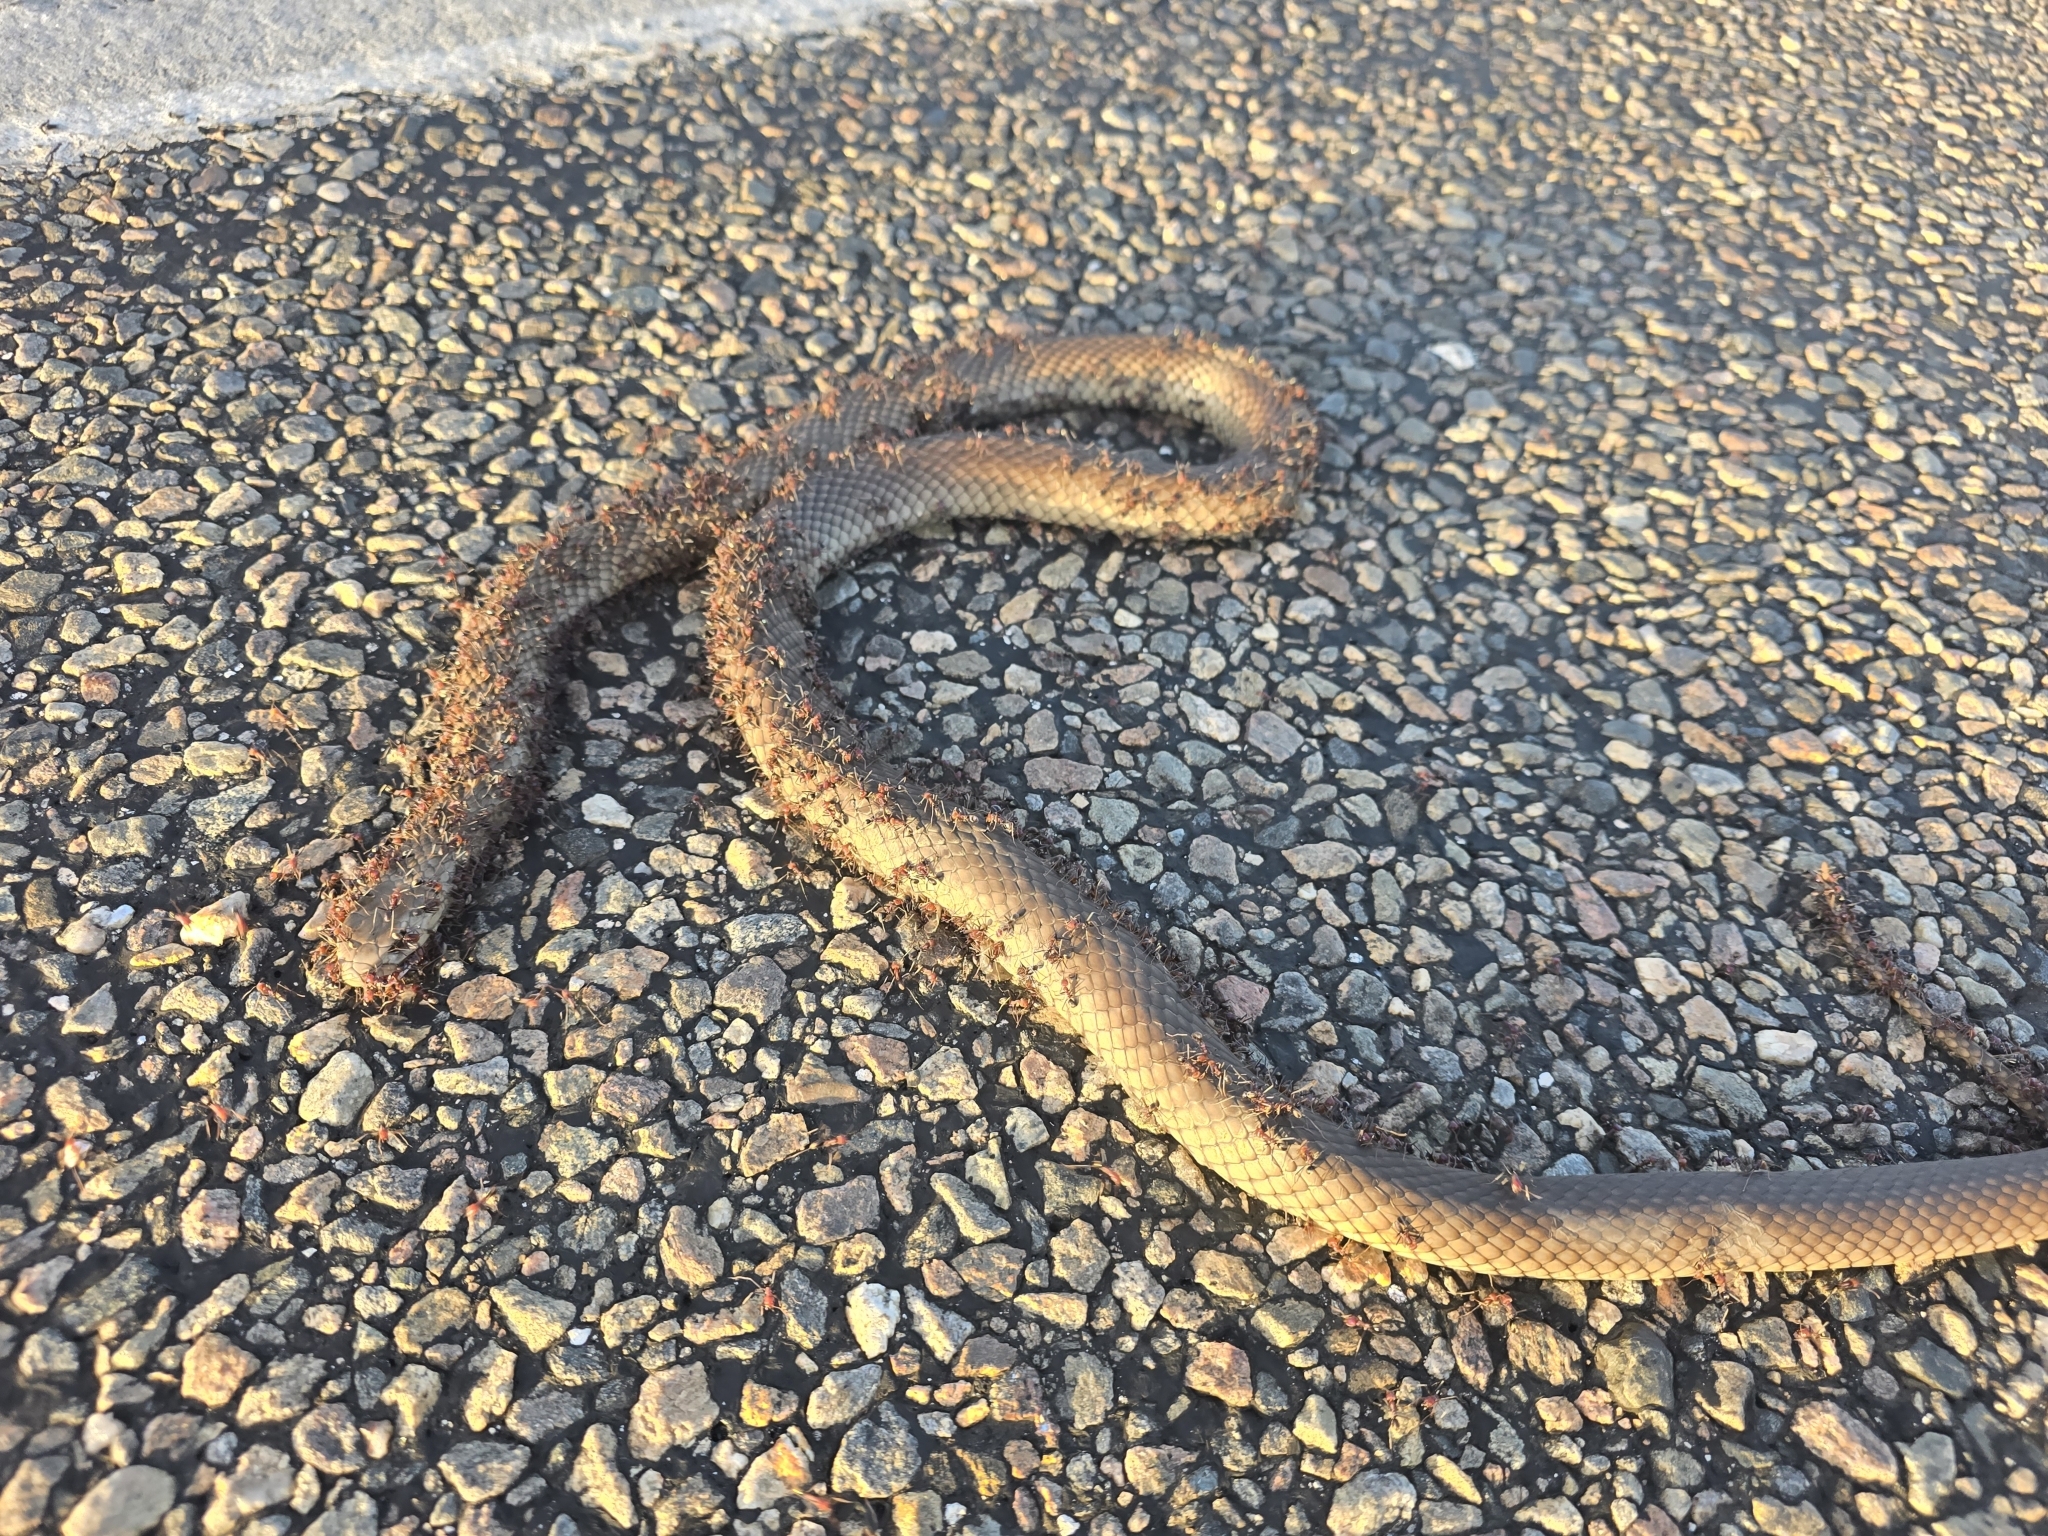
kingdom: Animalia
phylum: Chordata
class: Squamata
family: Elapidae
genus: Pseudonaja
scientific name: Pseudonaja textilis
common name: Eastern brown snake
